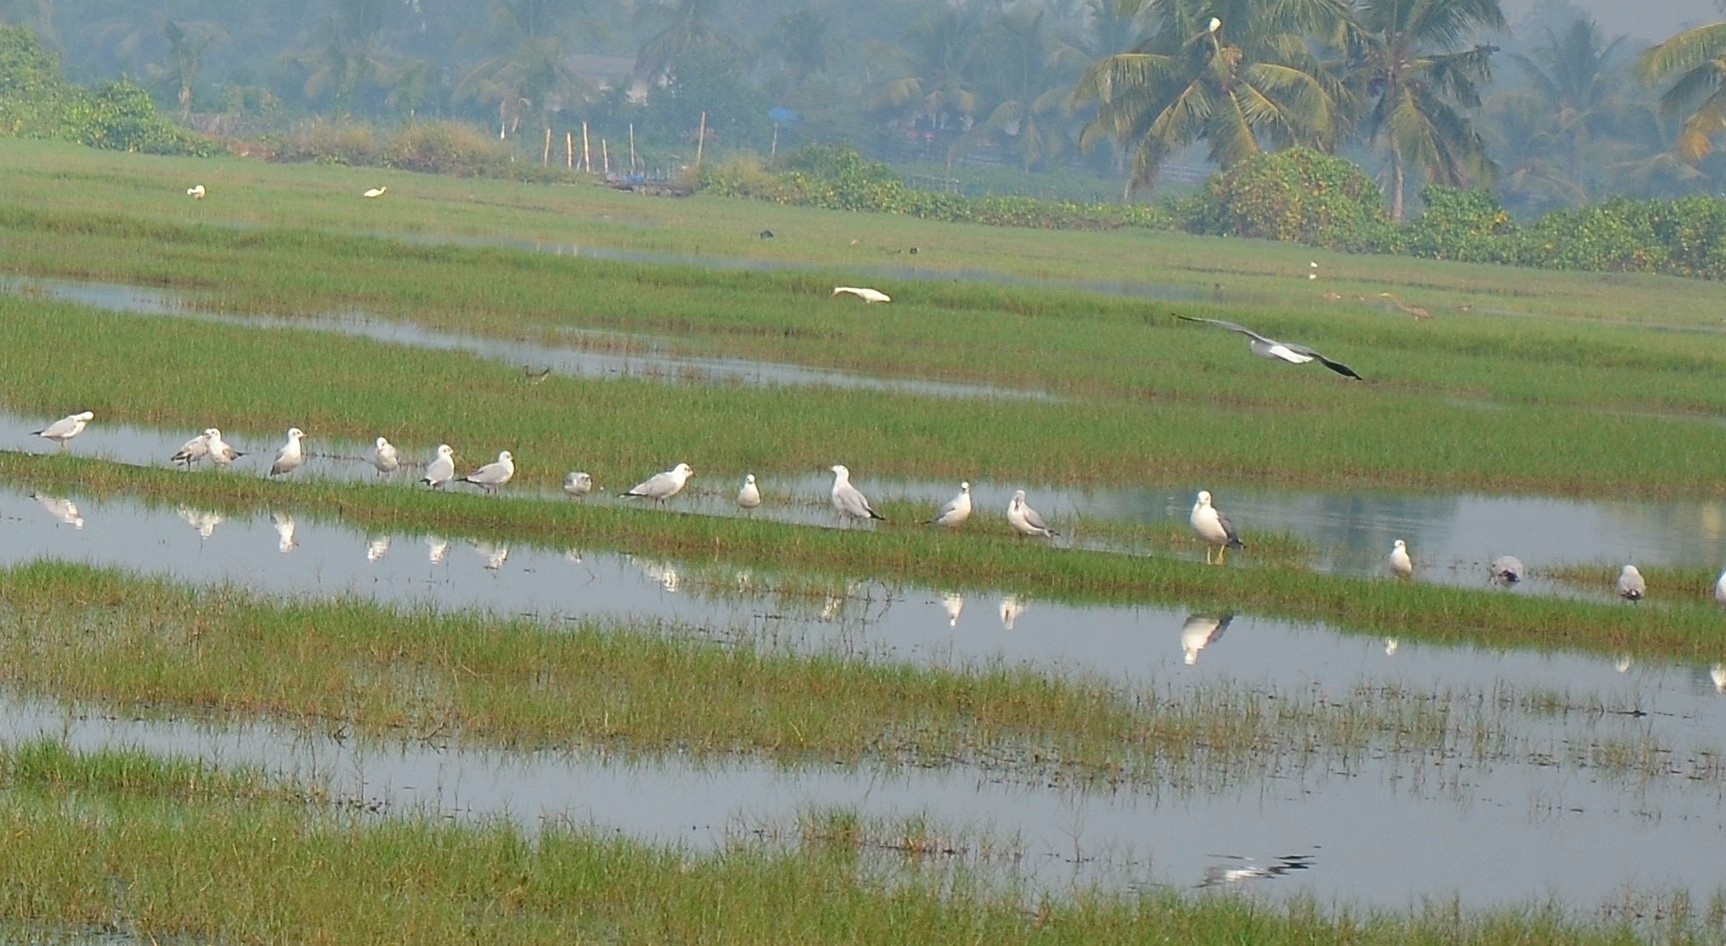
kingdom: Animalia
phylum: Chordata
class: Aves
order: Charadriiformes
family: Laridae
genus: Chroicocephalus
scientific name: Chroicocephalus brunnicephalus
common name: Brown-headed gull
